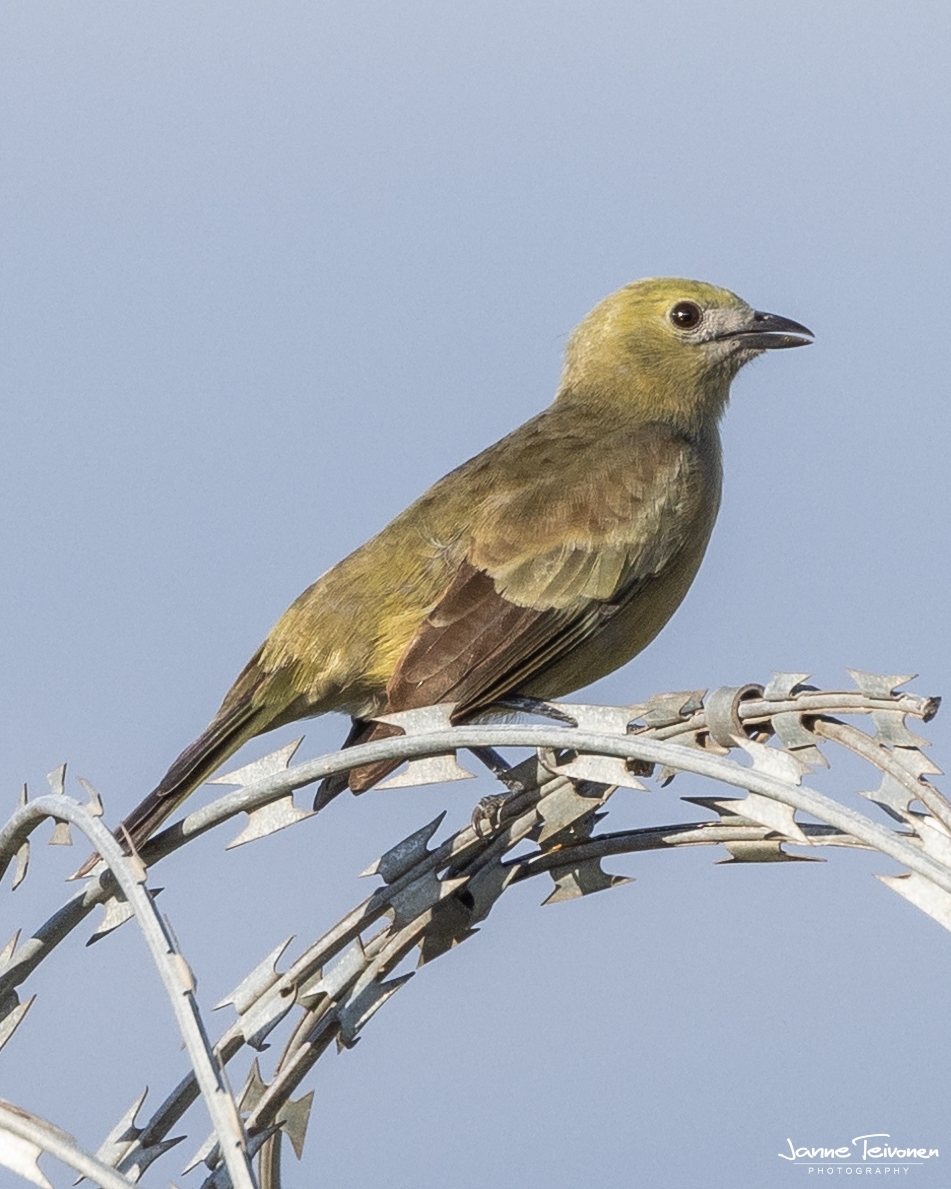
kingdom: Animalia
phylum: Chordata
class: Aves
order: Passeriformes
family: Thraupidae
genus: Thraupis
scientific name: Thraupis palmarum
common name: Palm tanager
